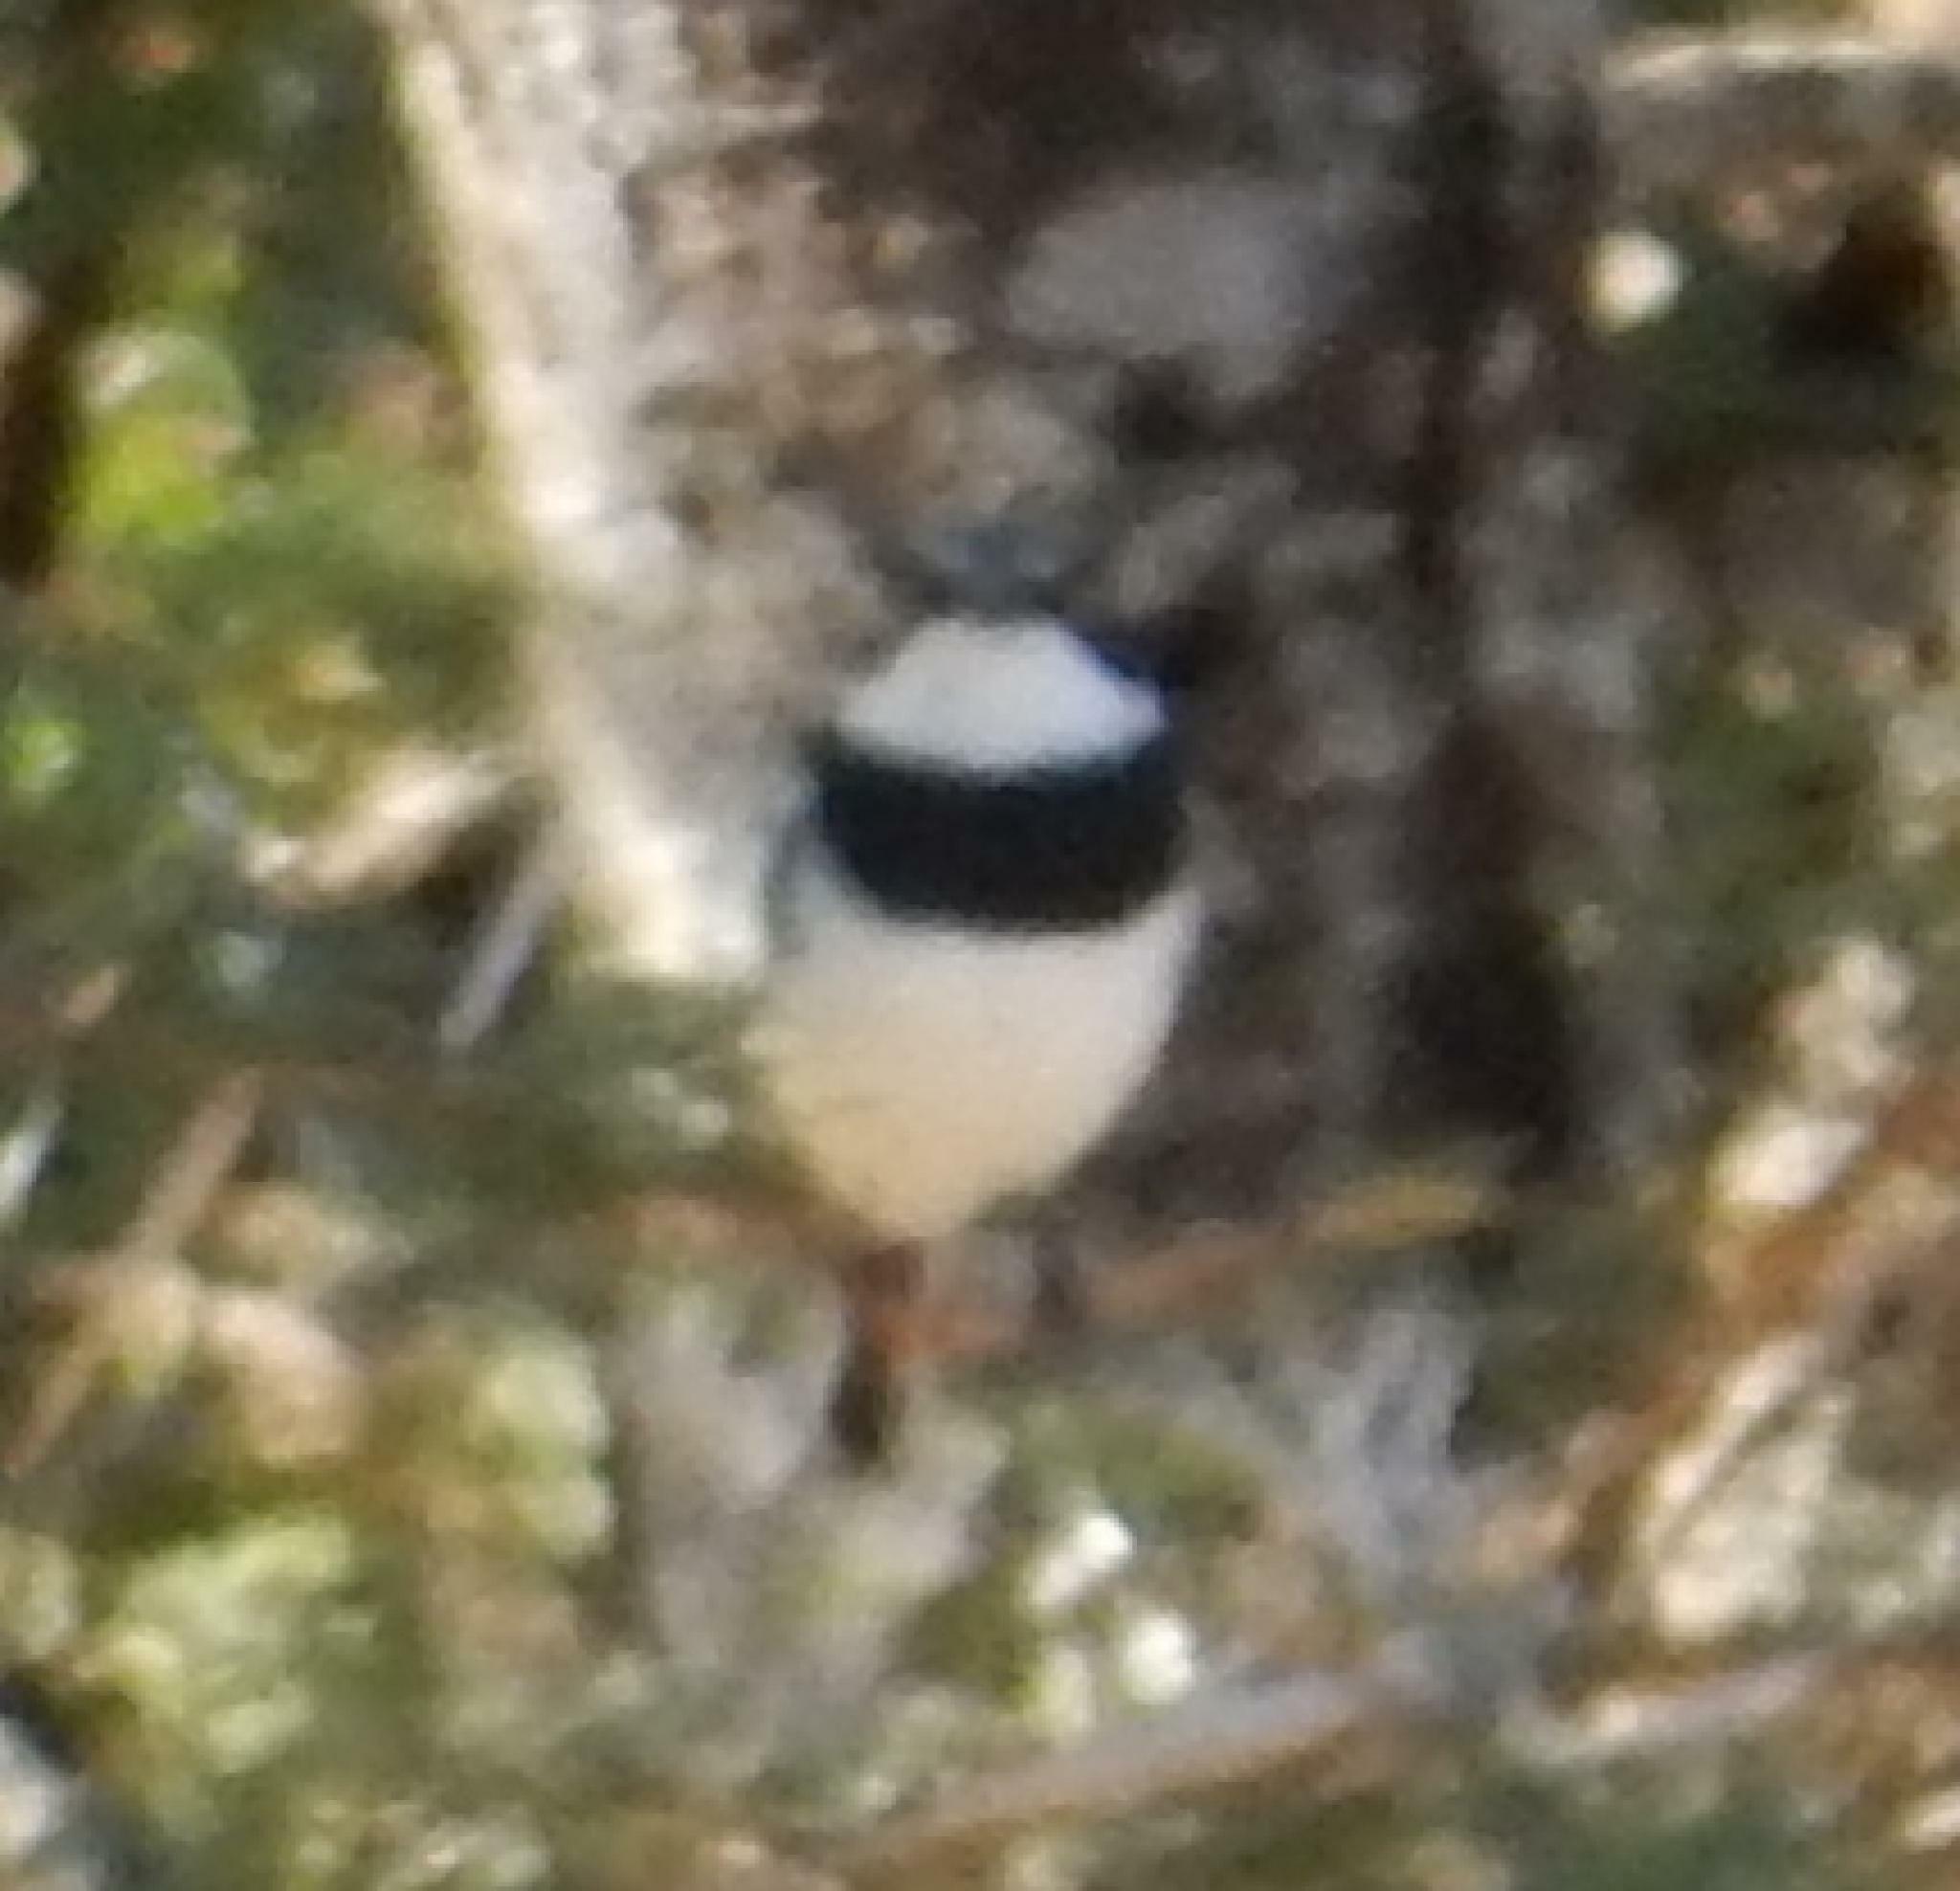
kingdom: Animalia
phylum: Chordata
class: Aves
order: Passeriformes
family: Platysteiridae
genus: Batis
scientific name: Batis molitor
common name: Chinspot batis
